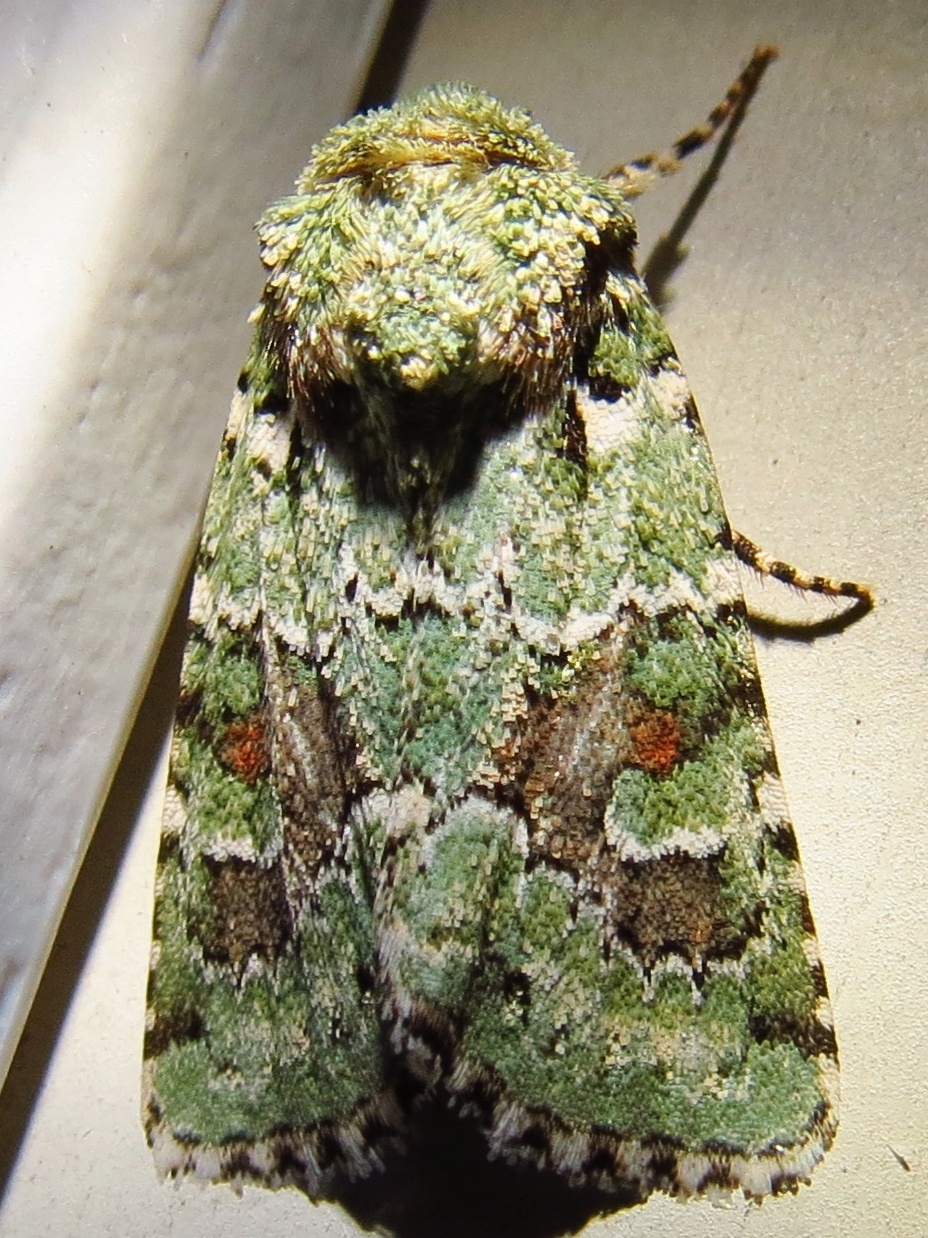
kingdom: Animalia
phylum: Arthropoda
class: Insecta
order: Lepidoptera
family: Noctuidae
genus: Lacinipolia
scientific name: Lacinipolia laudabilis
